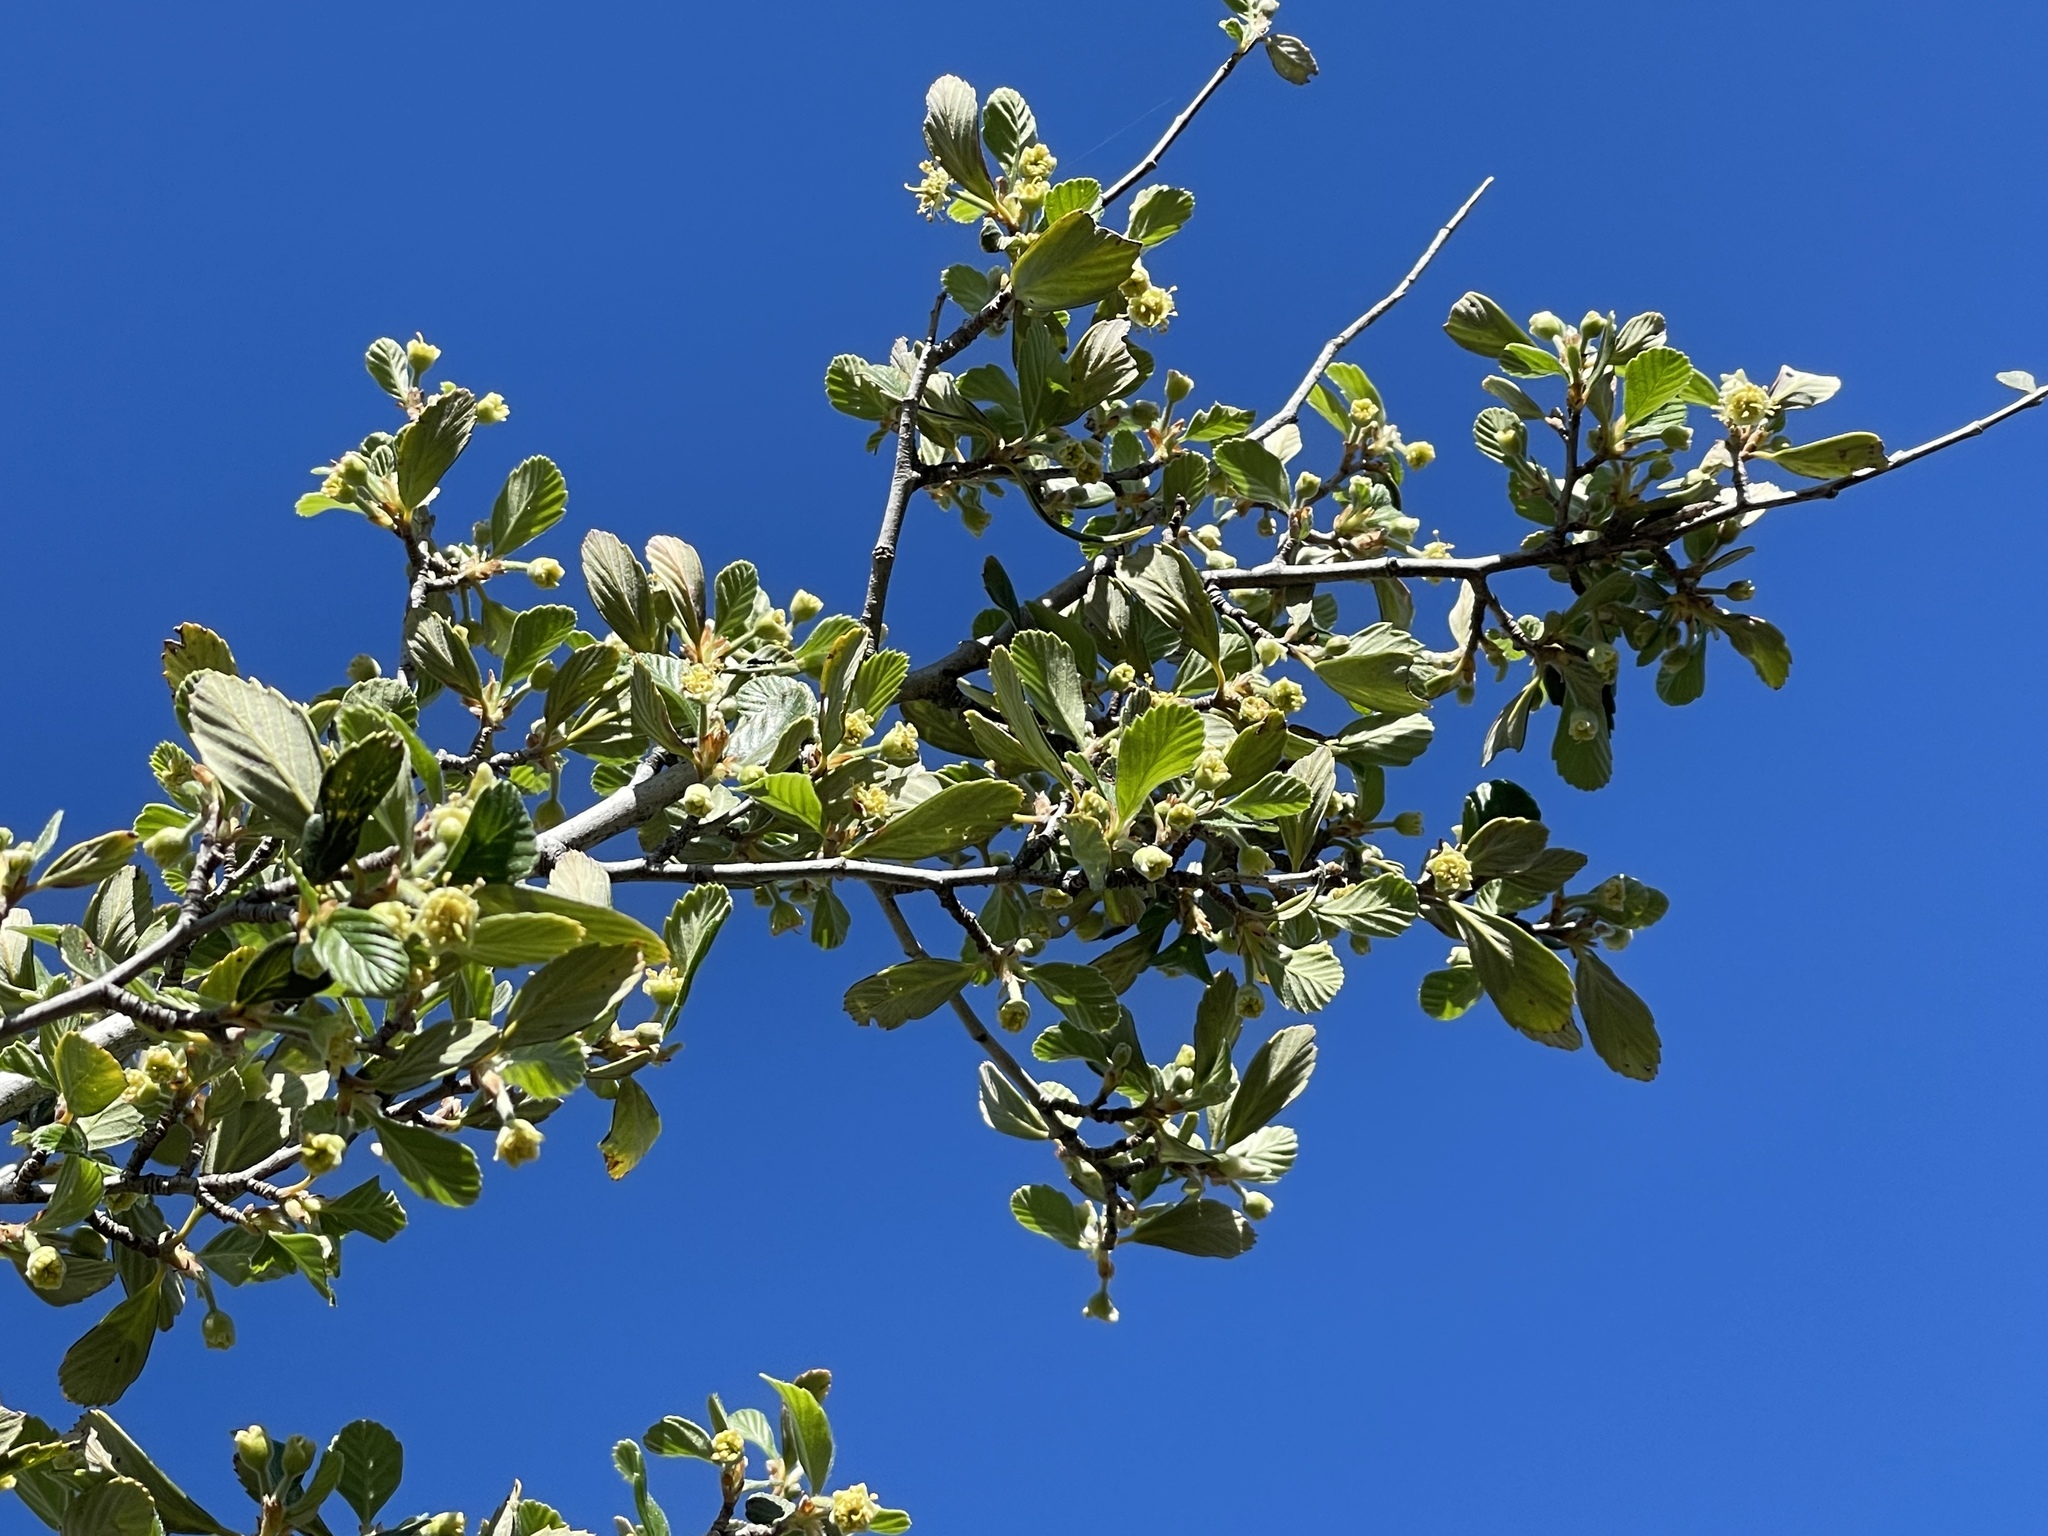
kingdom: Plantae
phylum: Tracheophyta
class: Magnoliopsida
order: Rosales
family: Rosaceae
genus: Cercocarpus
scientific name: Cercocarpus betuloides
